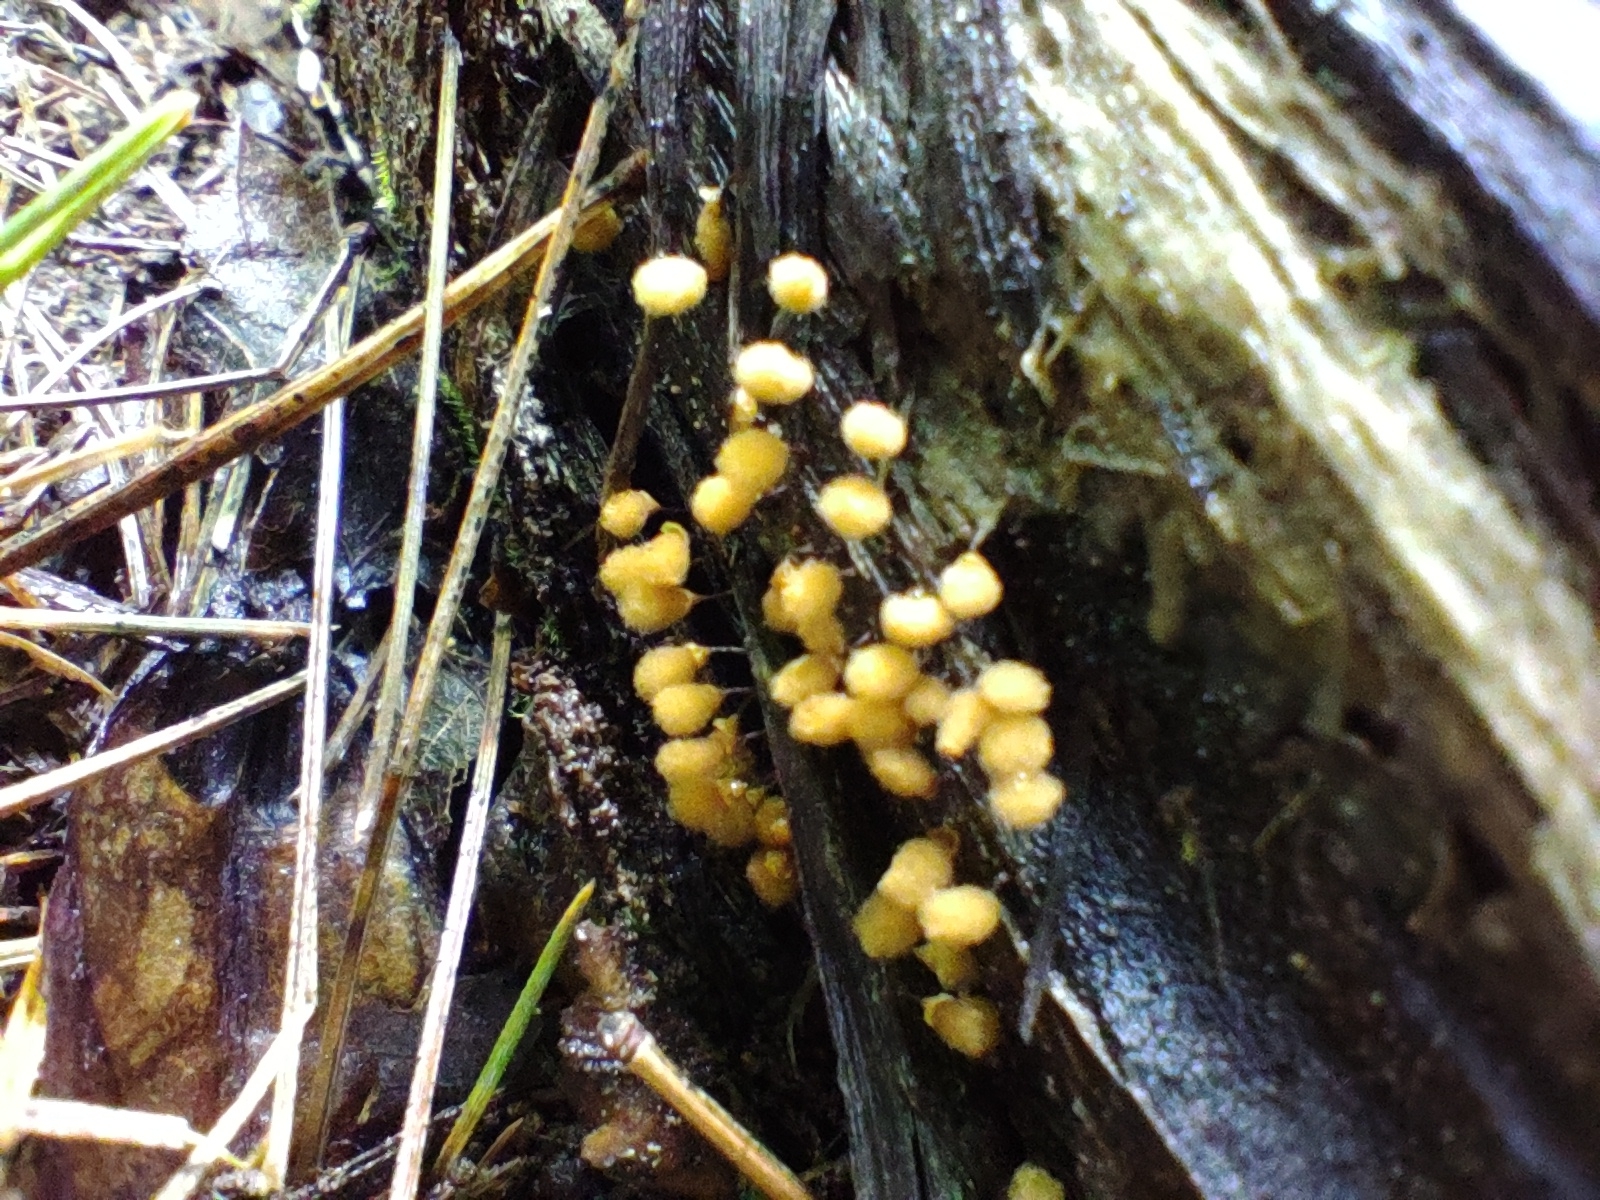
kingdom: Protozoa
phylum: Mycetozoa
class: Myxomycetes
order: Trichiales
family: Arcyriaceae
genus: Hemitrichia
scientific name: Hemitrichia calyculata
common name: Push pin slime mold
